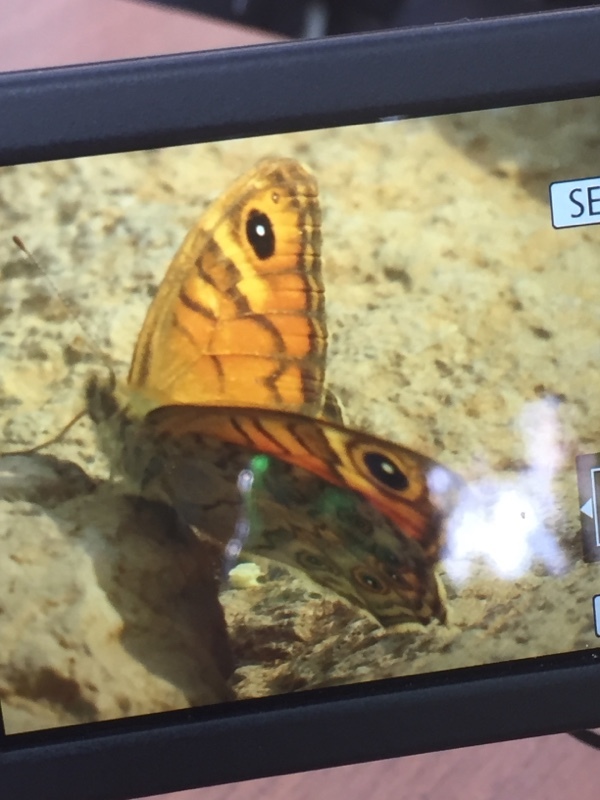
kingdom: Animalia
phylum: Arthropoda
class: Insecta
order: Lepidoptera
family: Nymphalidae
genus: Pararge
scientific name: Pararge Lasiommata megera
